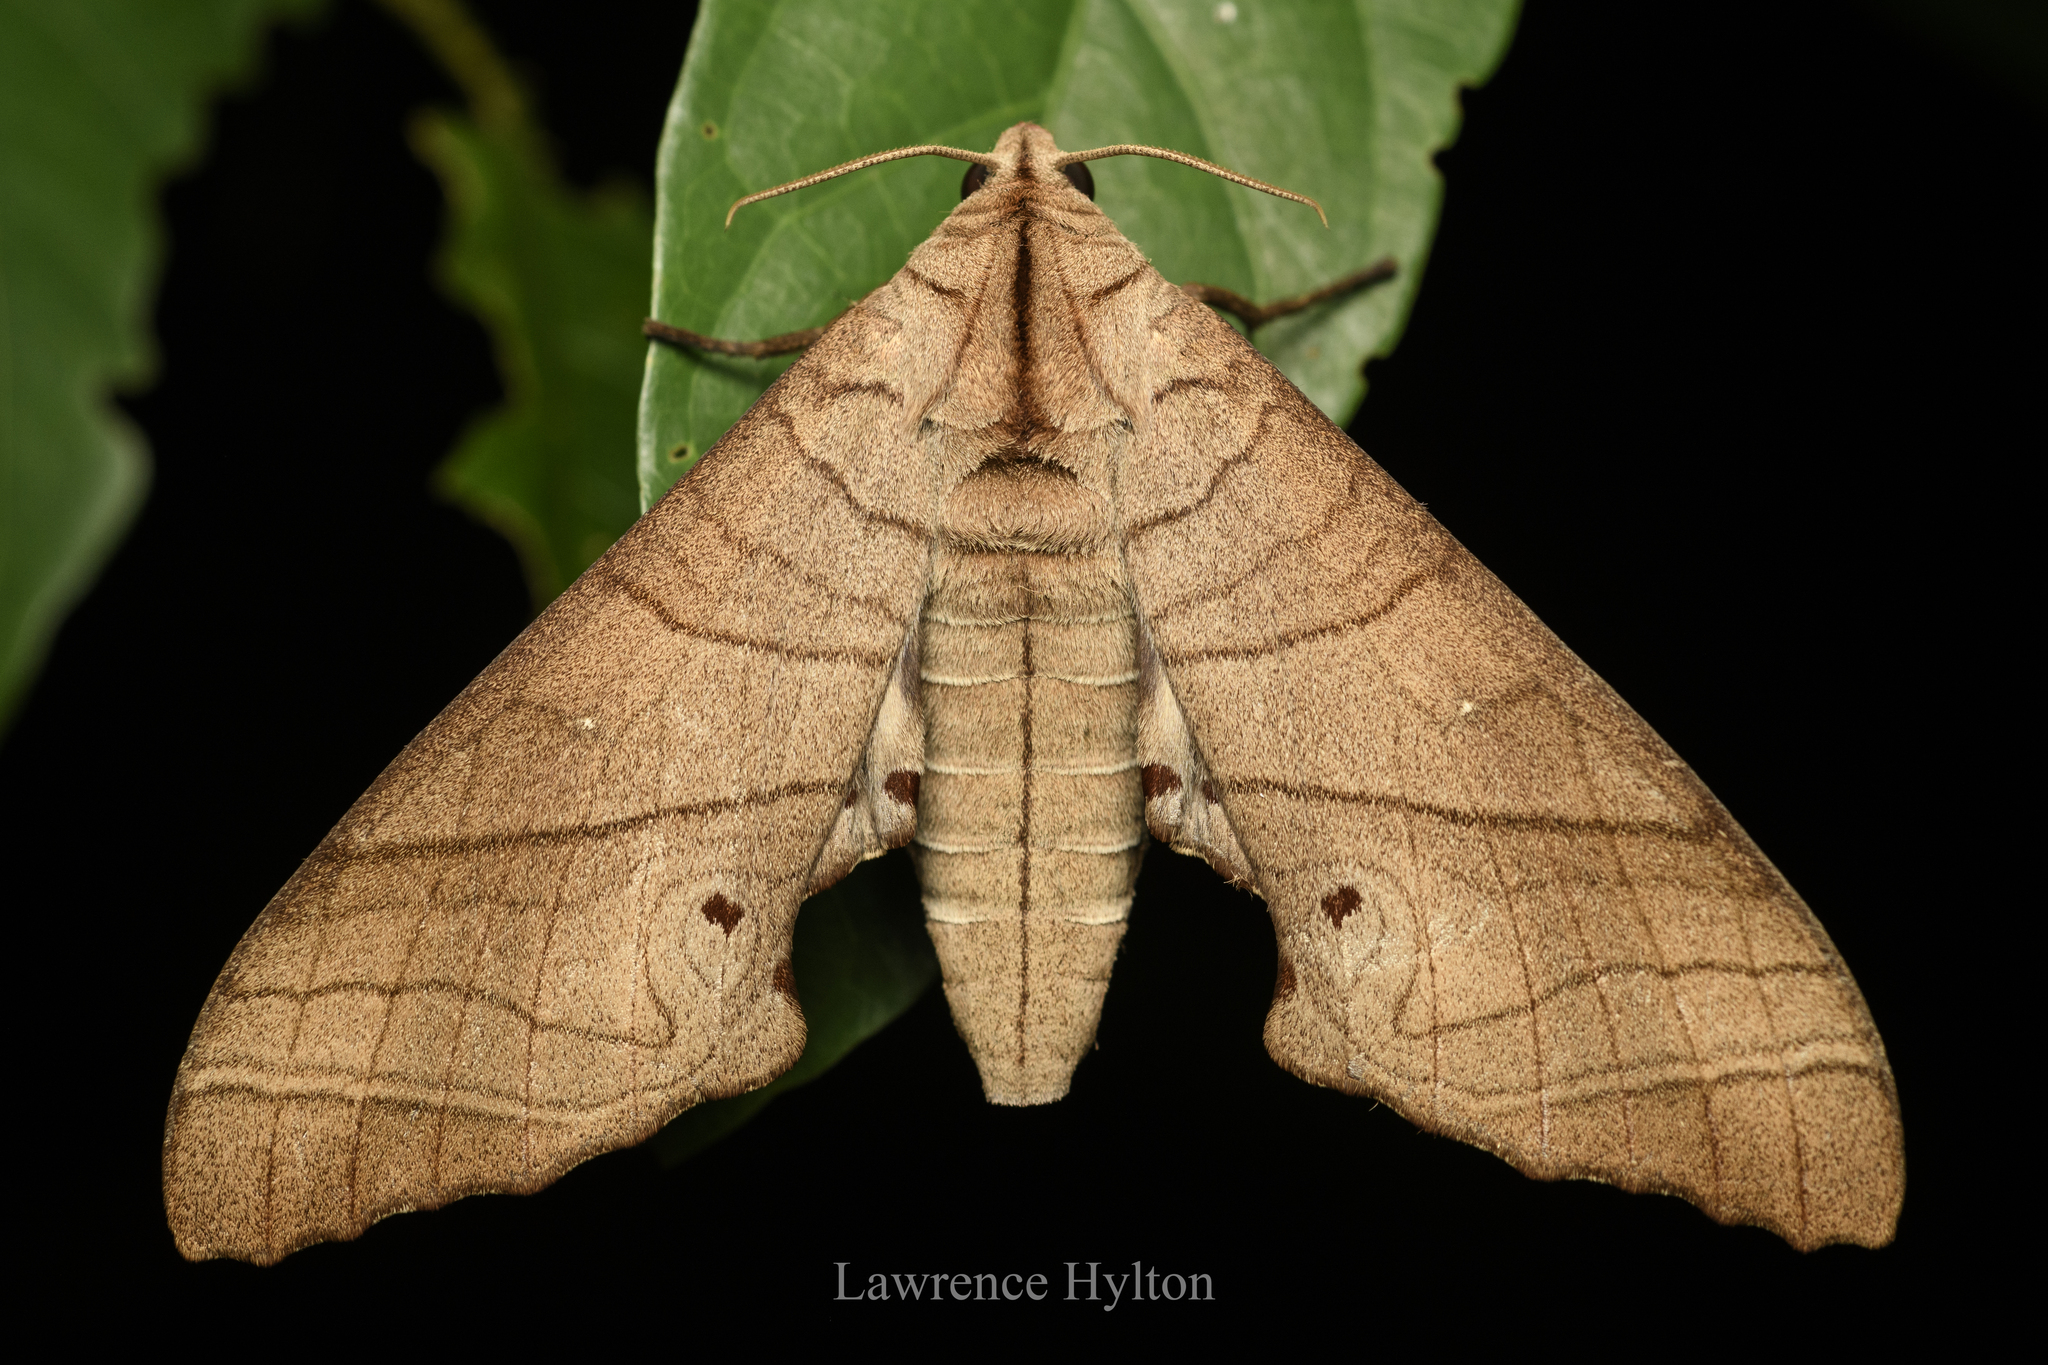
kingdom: Animalia
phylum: Arthropoda
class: Insecta
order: Lepidoptera
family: Sphingidae
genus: Marumba
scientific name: Marumba dyras
